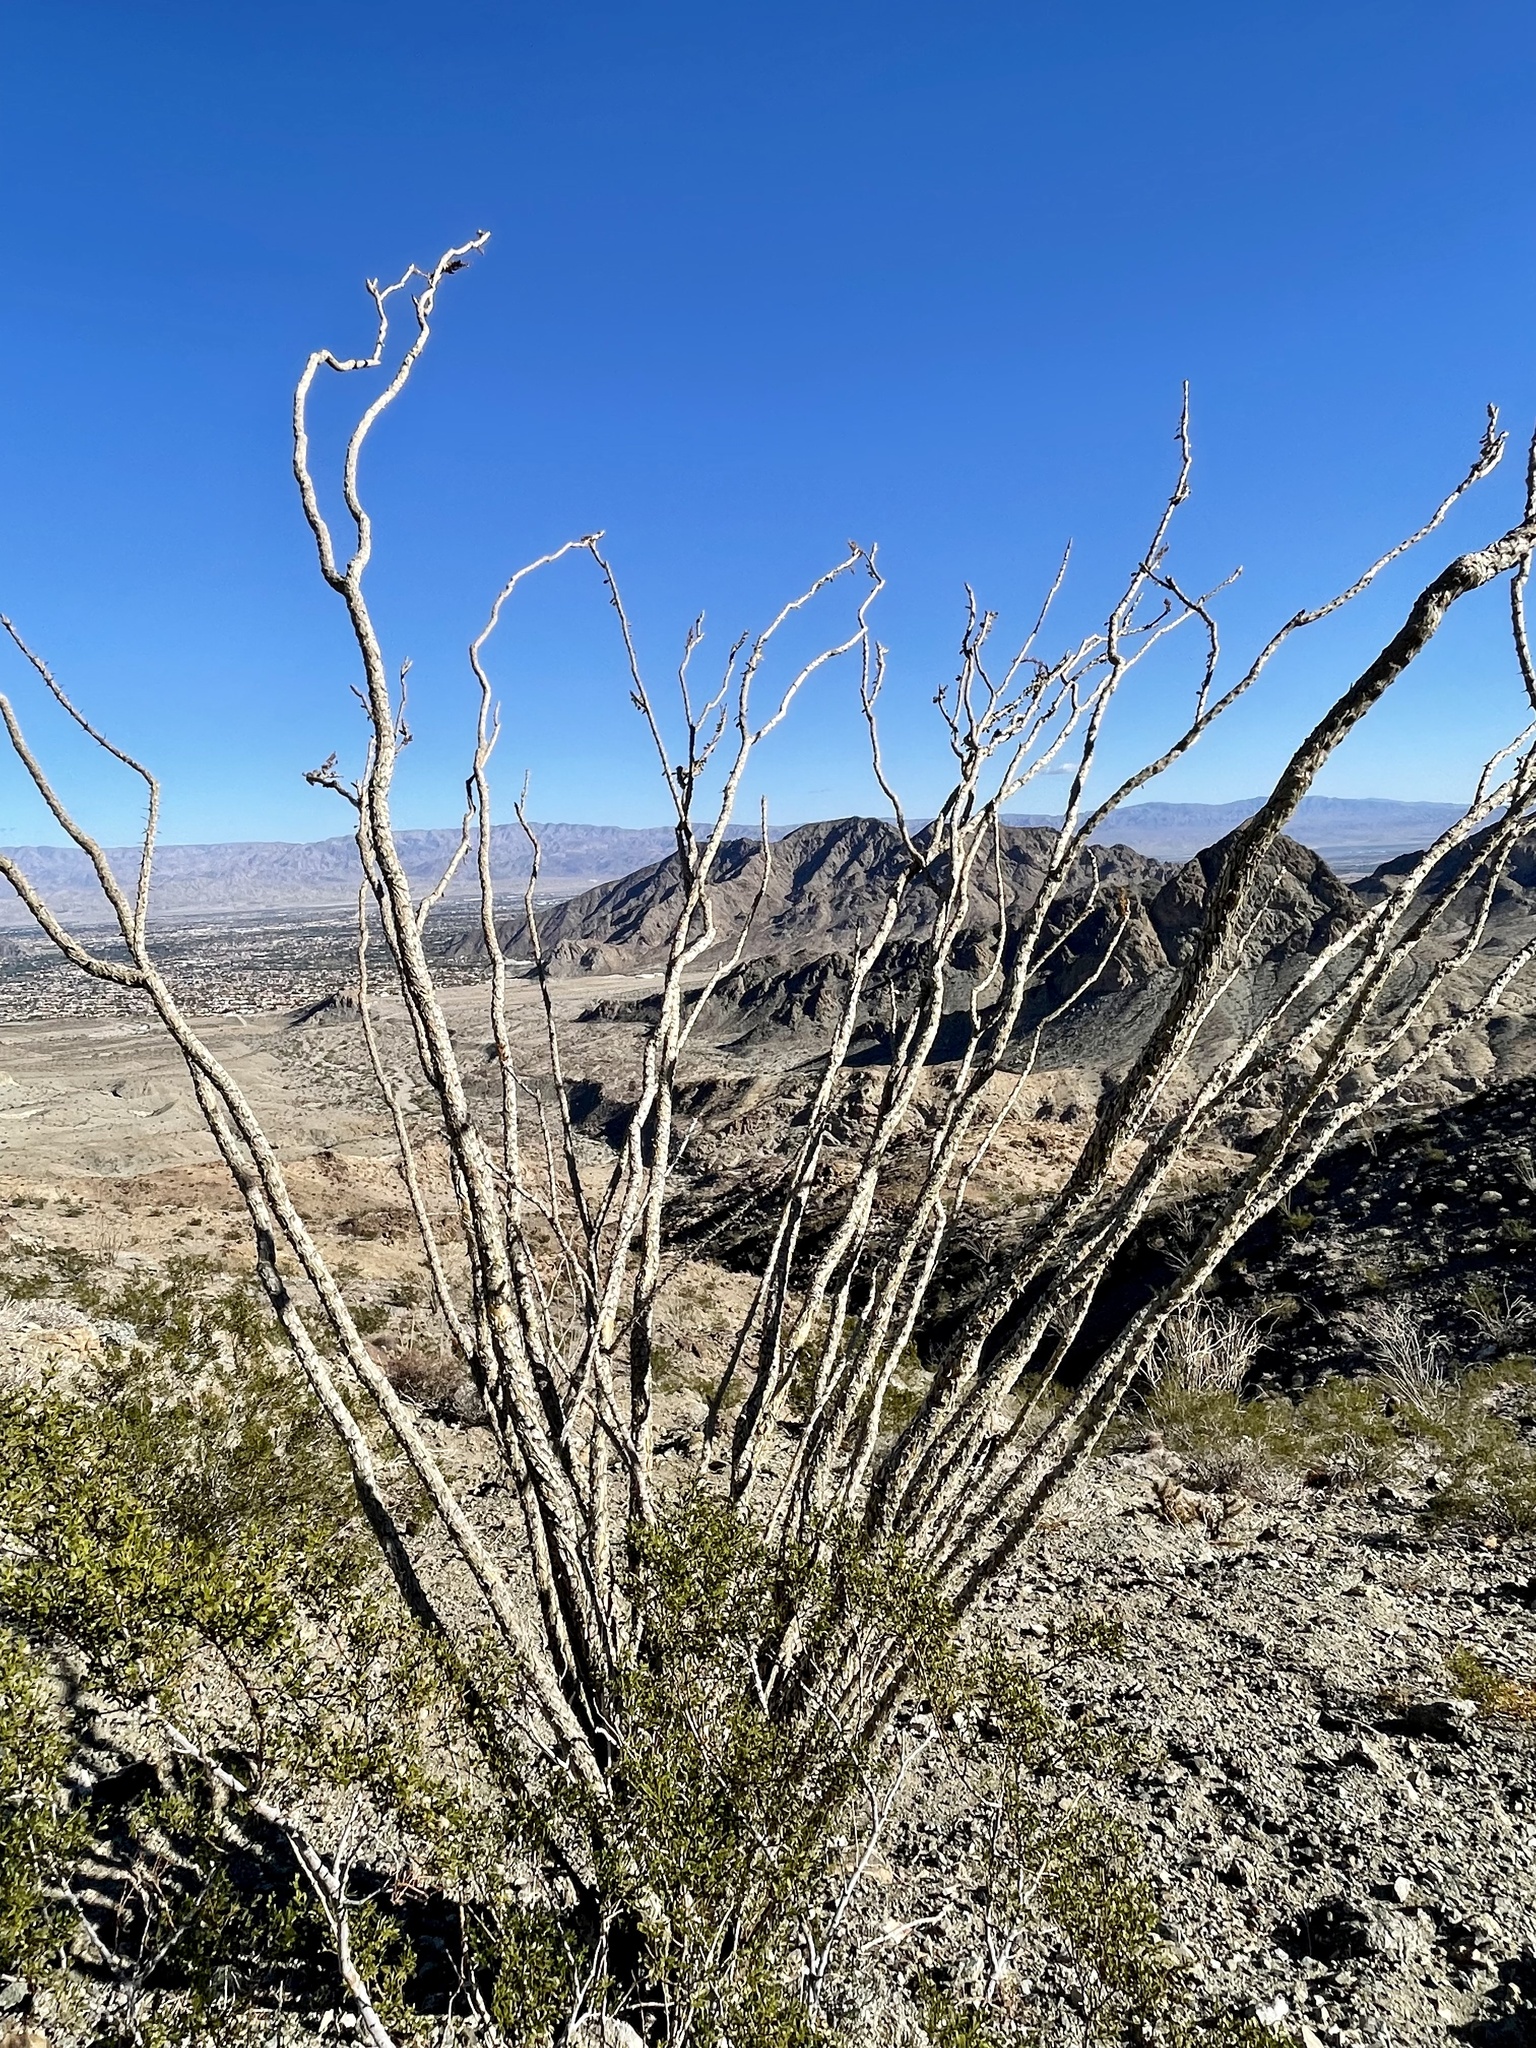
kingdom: Plantae
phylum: Tracheophyta
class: Magnoliopsida
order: Ericales
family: Fouquieriaceae
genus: Fouquieria
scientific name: Fouquieria splendens
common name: Vine-cactus
